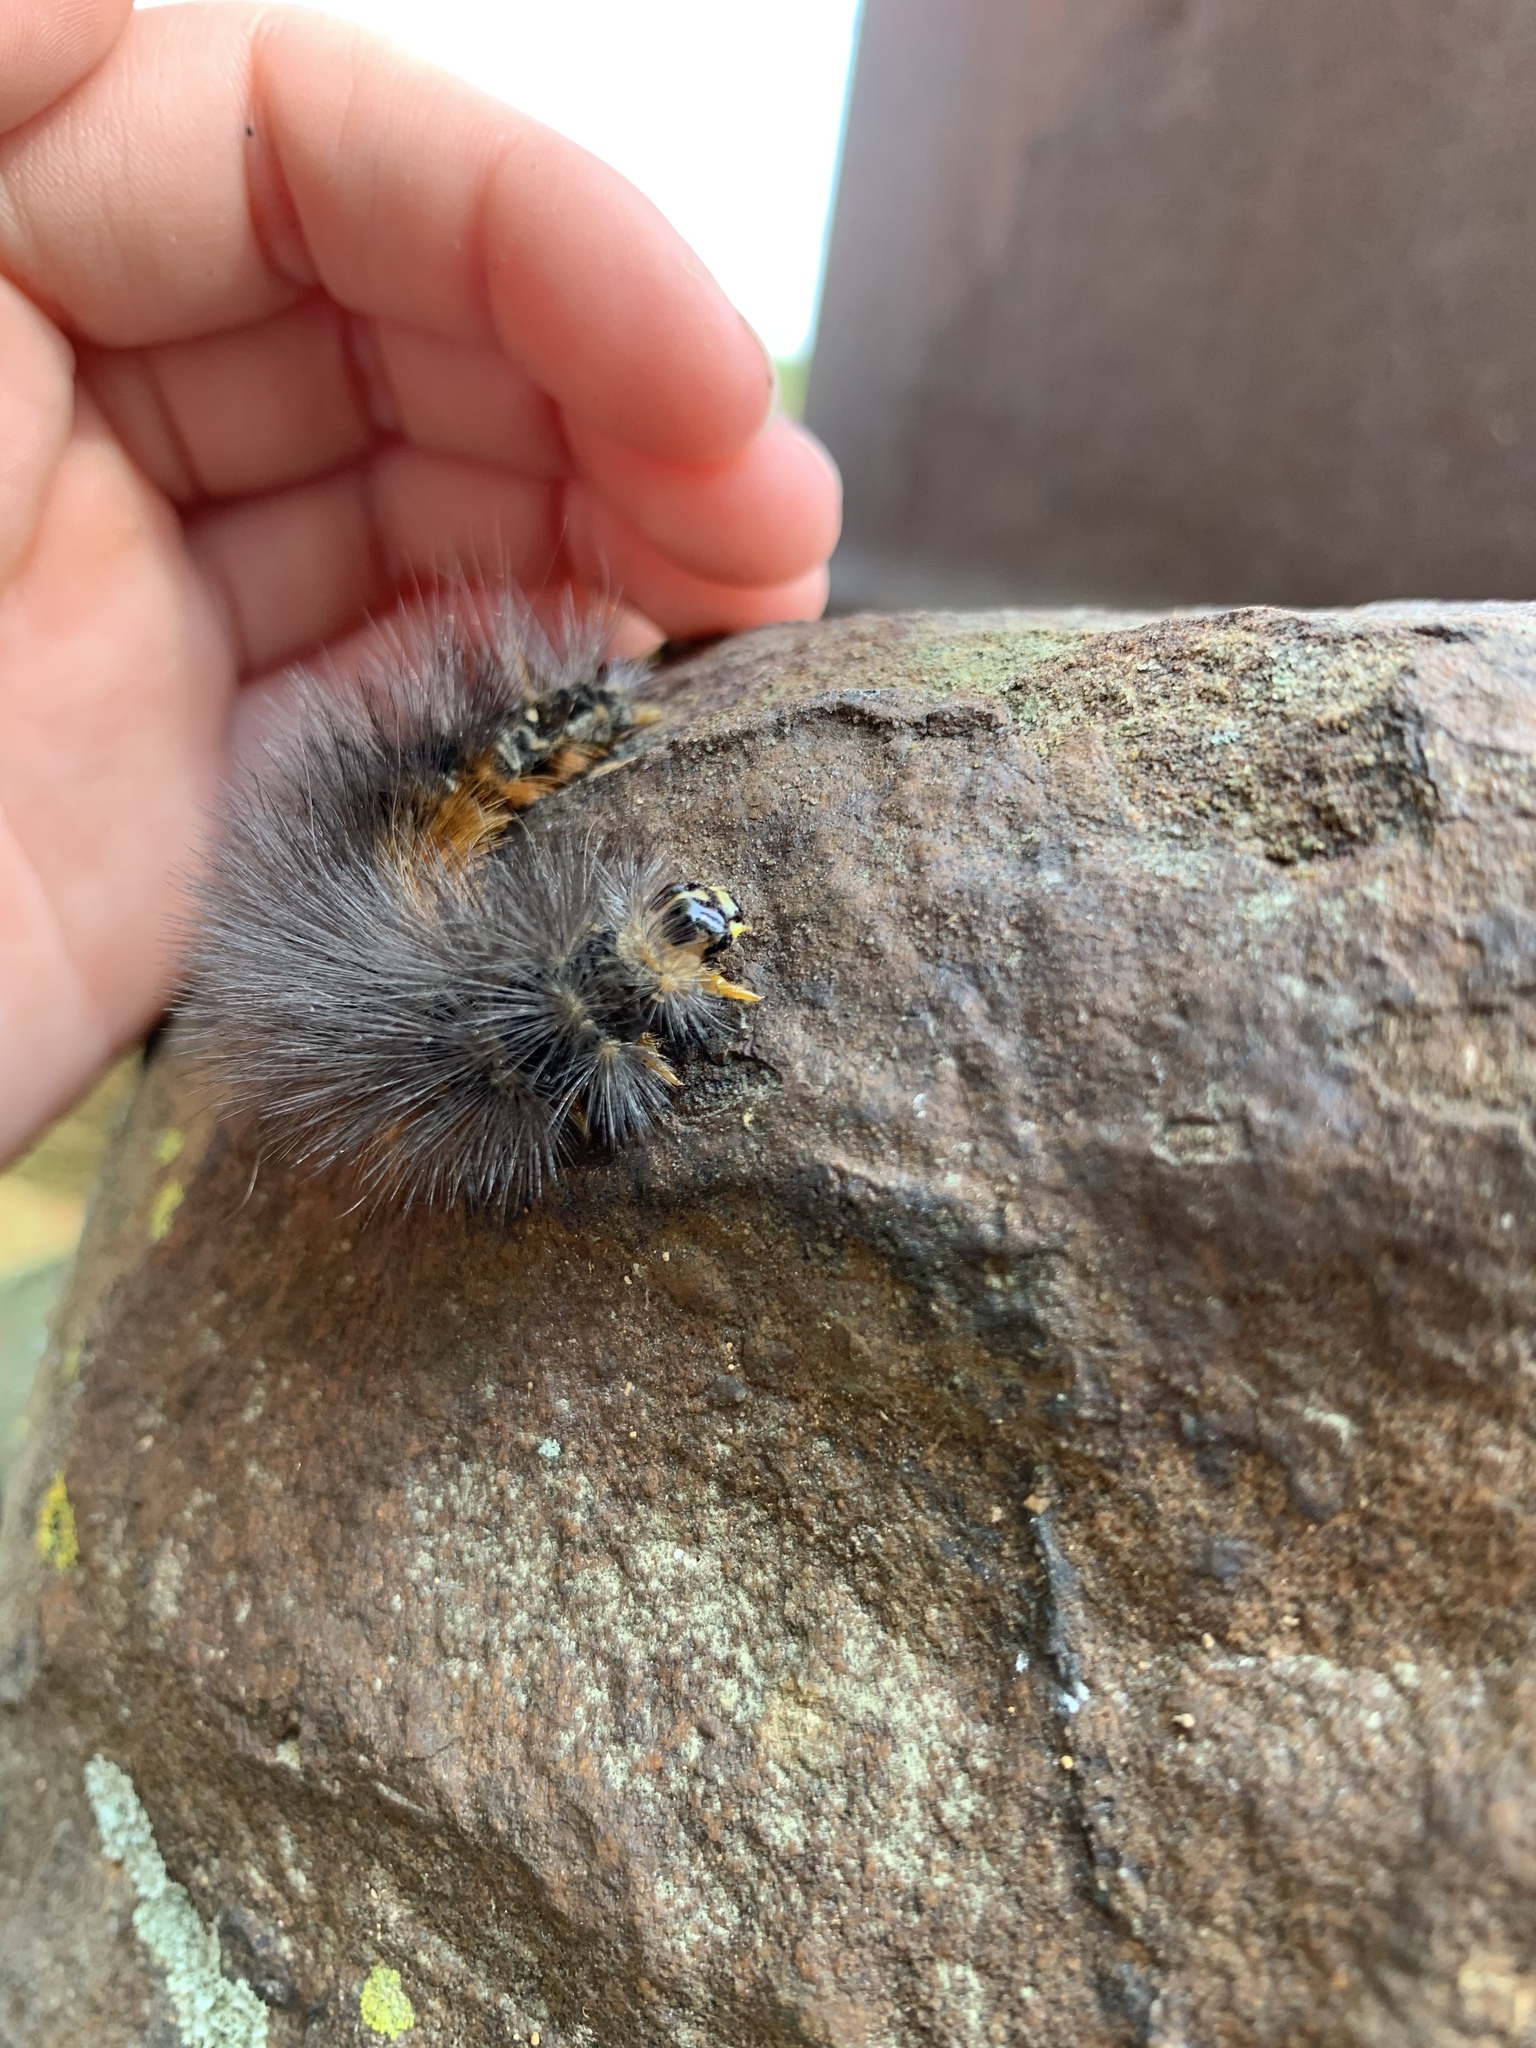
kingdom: Animalia
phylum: Arthropoda
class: Insecta
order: Lepidoptera
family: Erebidae
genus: Estigmene
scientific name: Estigmene acrea
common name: Salt marsh moth
